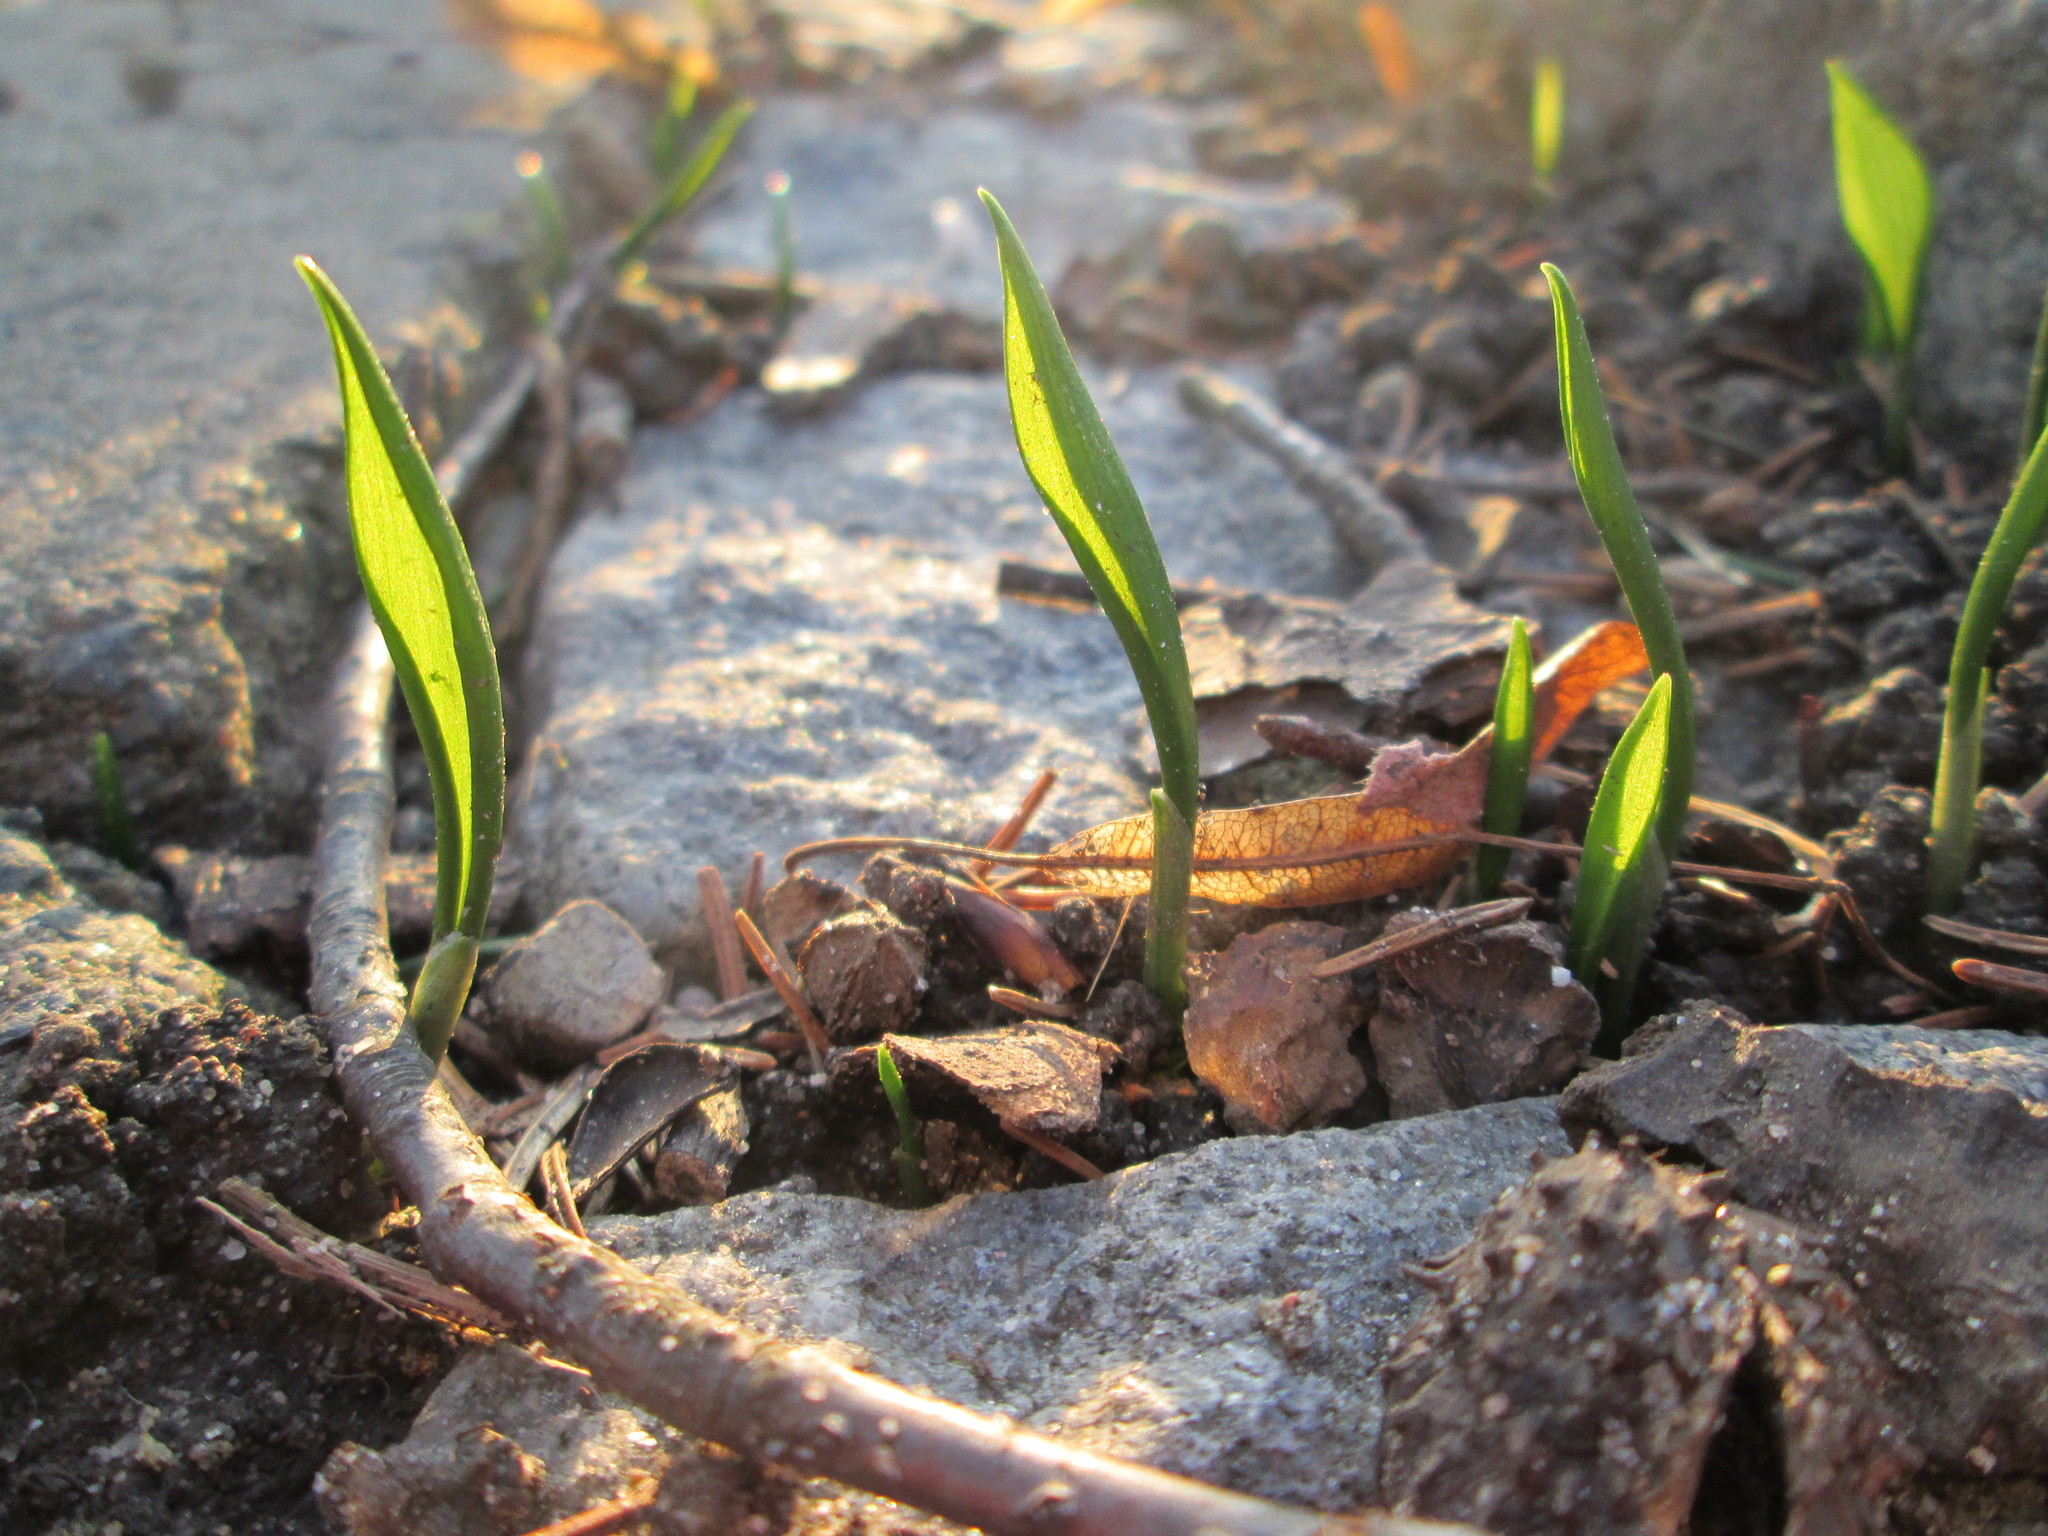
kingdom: Plantae
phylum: Tracheophyta
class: Liliopsida
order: Asparagales
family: Amaryllidaceae
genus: Allium
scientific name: Allium ursinum
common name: Ramsons
